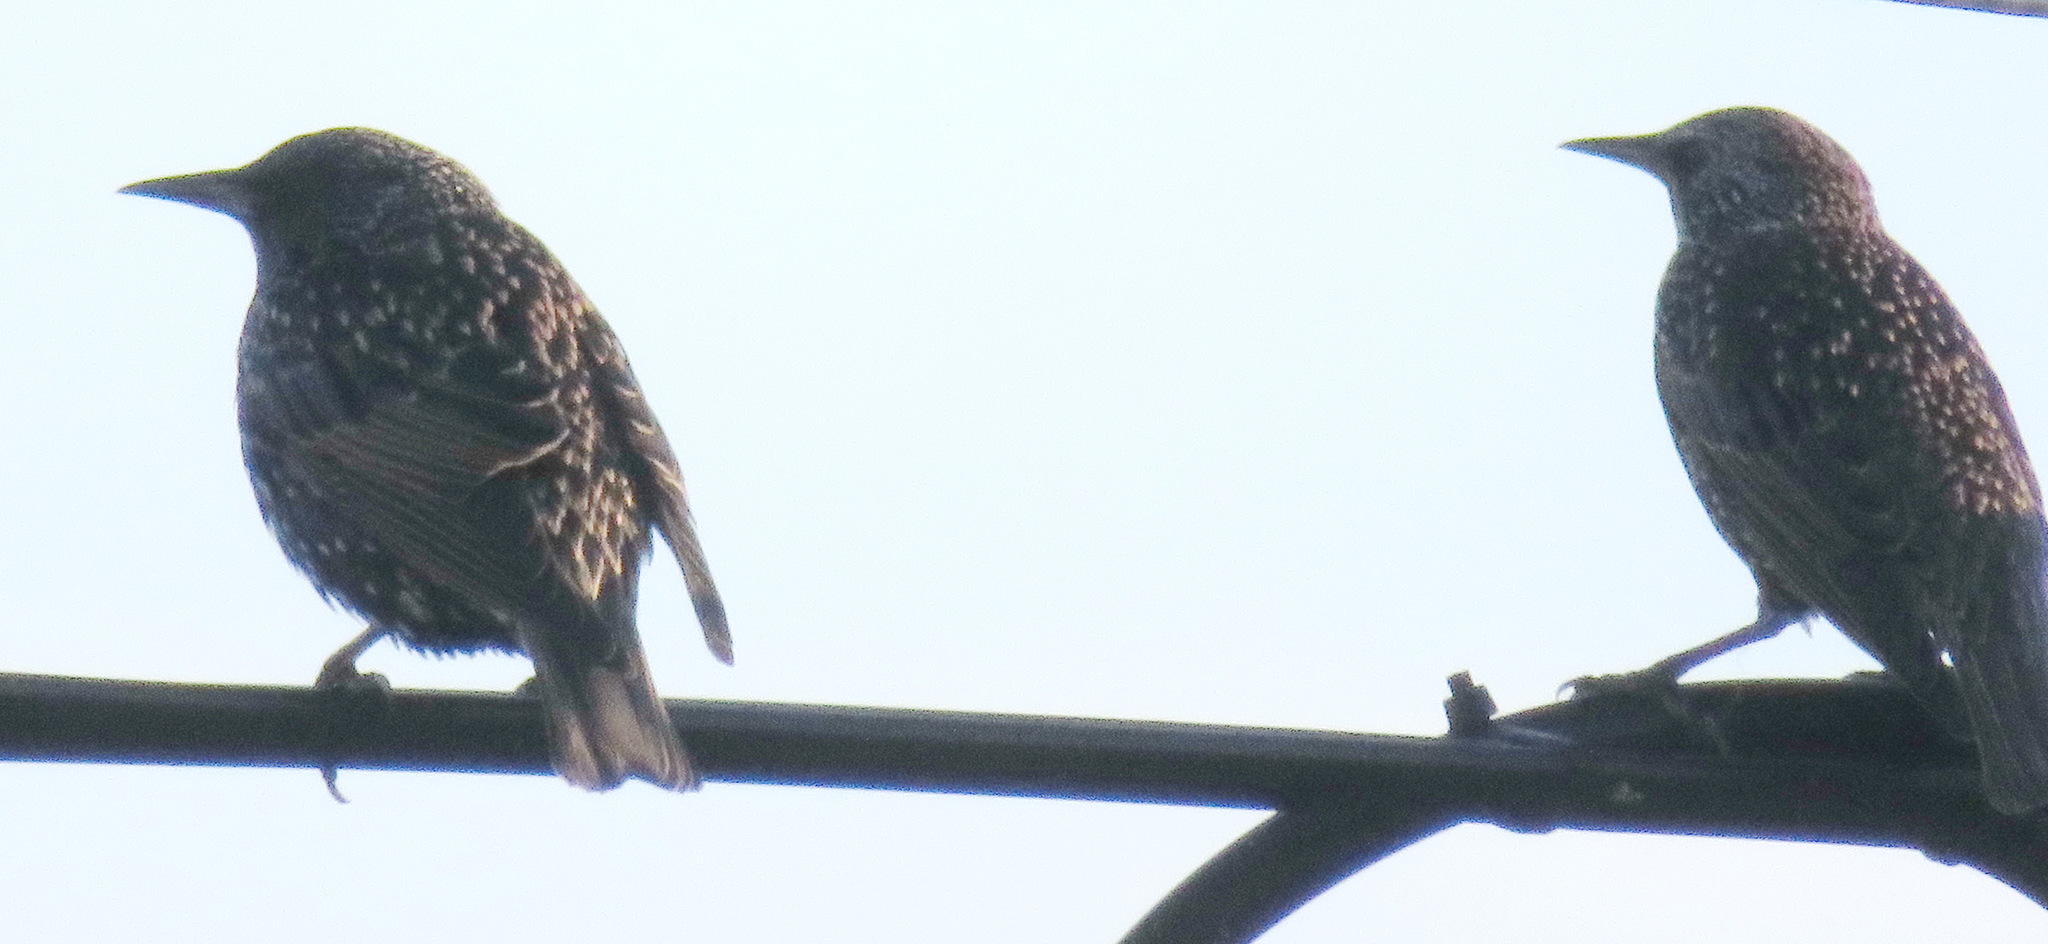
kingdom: Animalia
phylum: Chordata
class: Aves
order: Passeriformes
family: Sturnidae
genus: Sturnus
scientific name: Sturnus vulgaris
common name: Common starling
